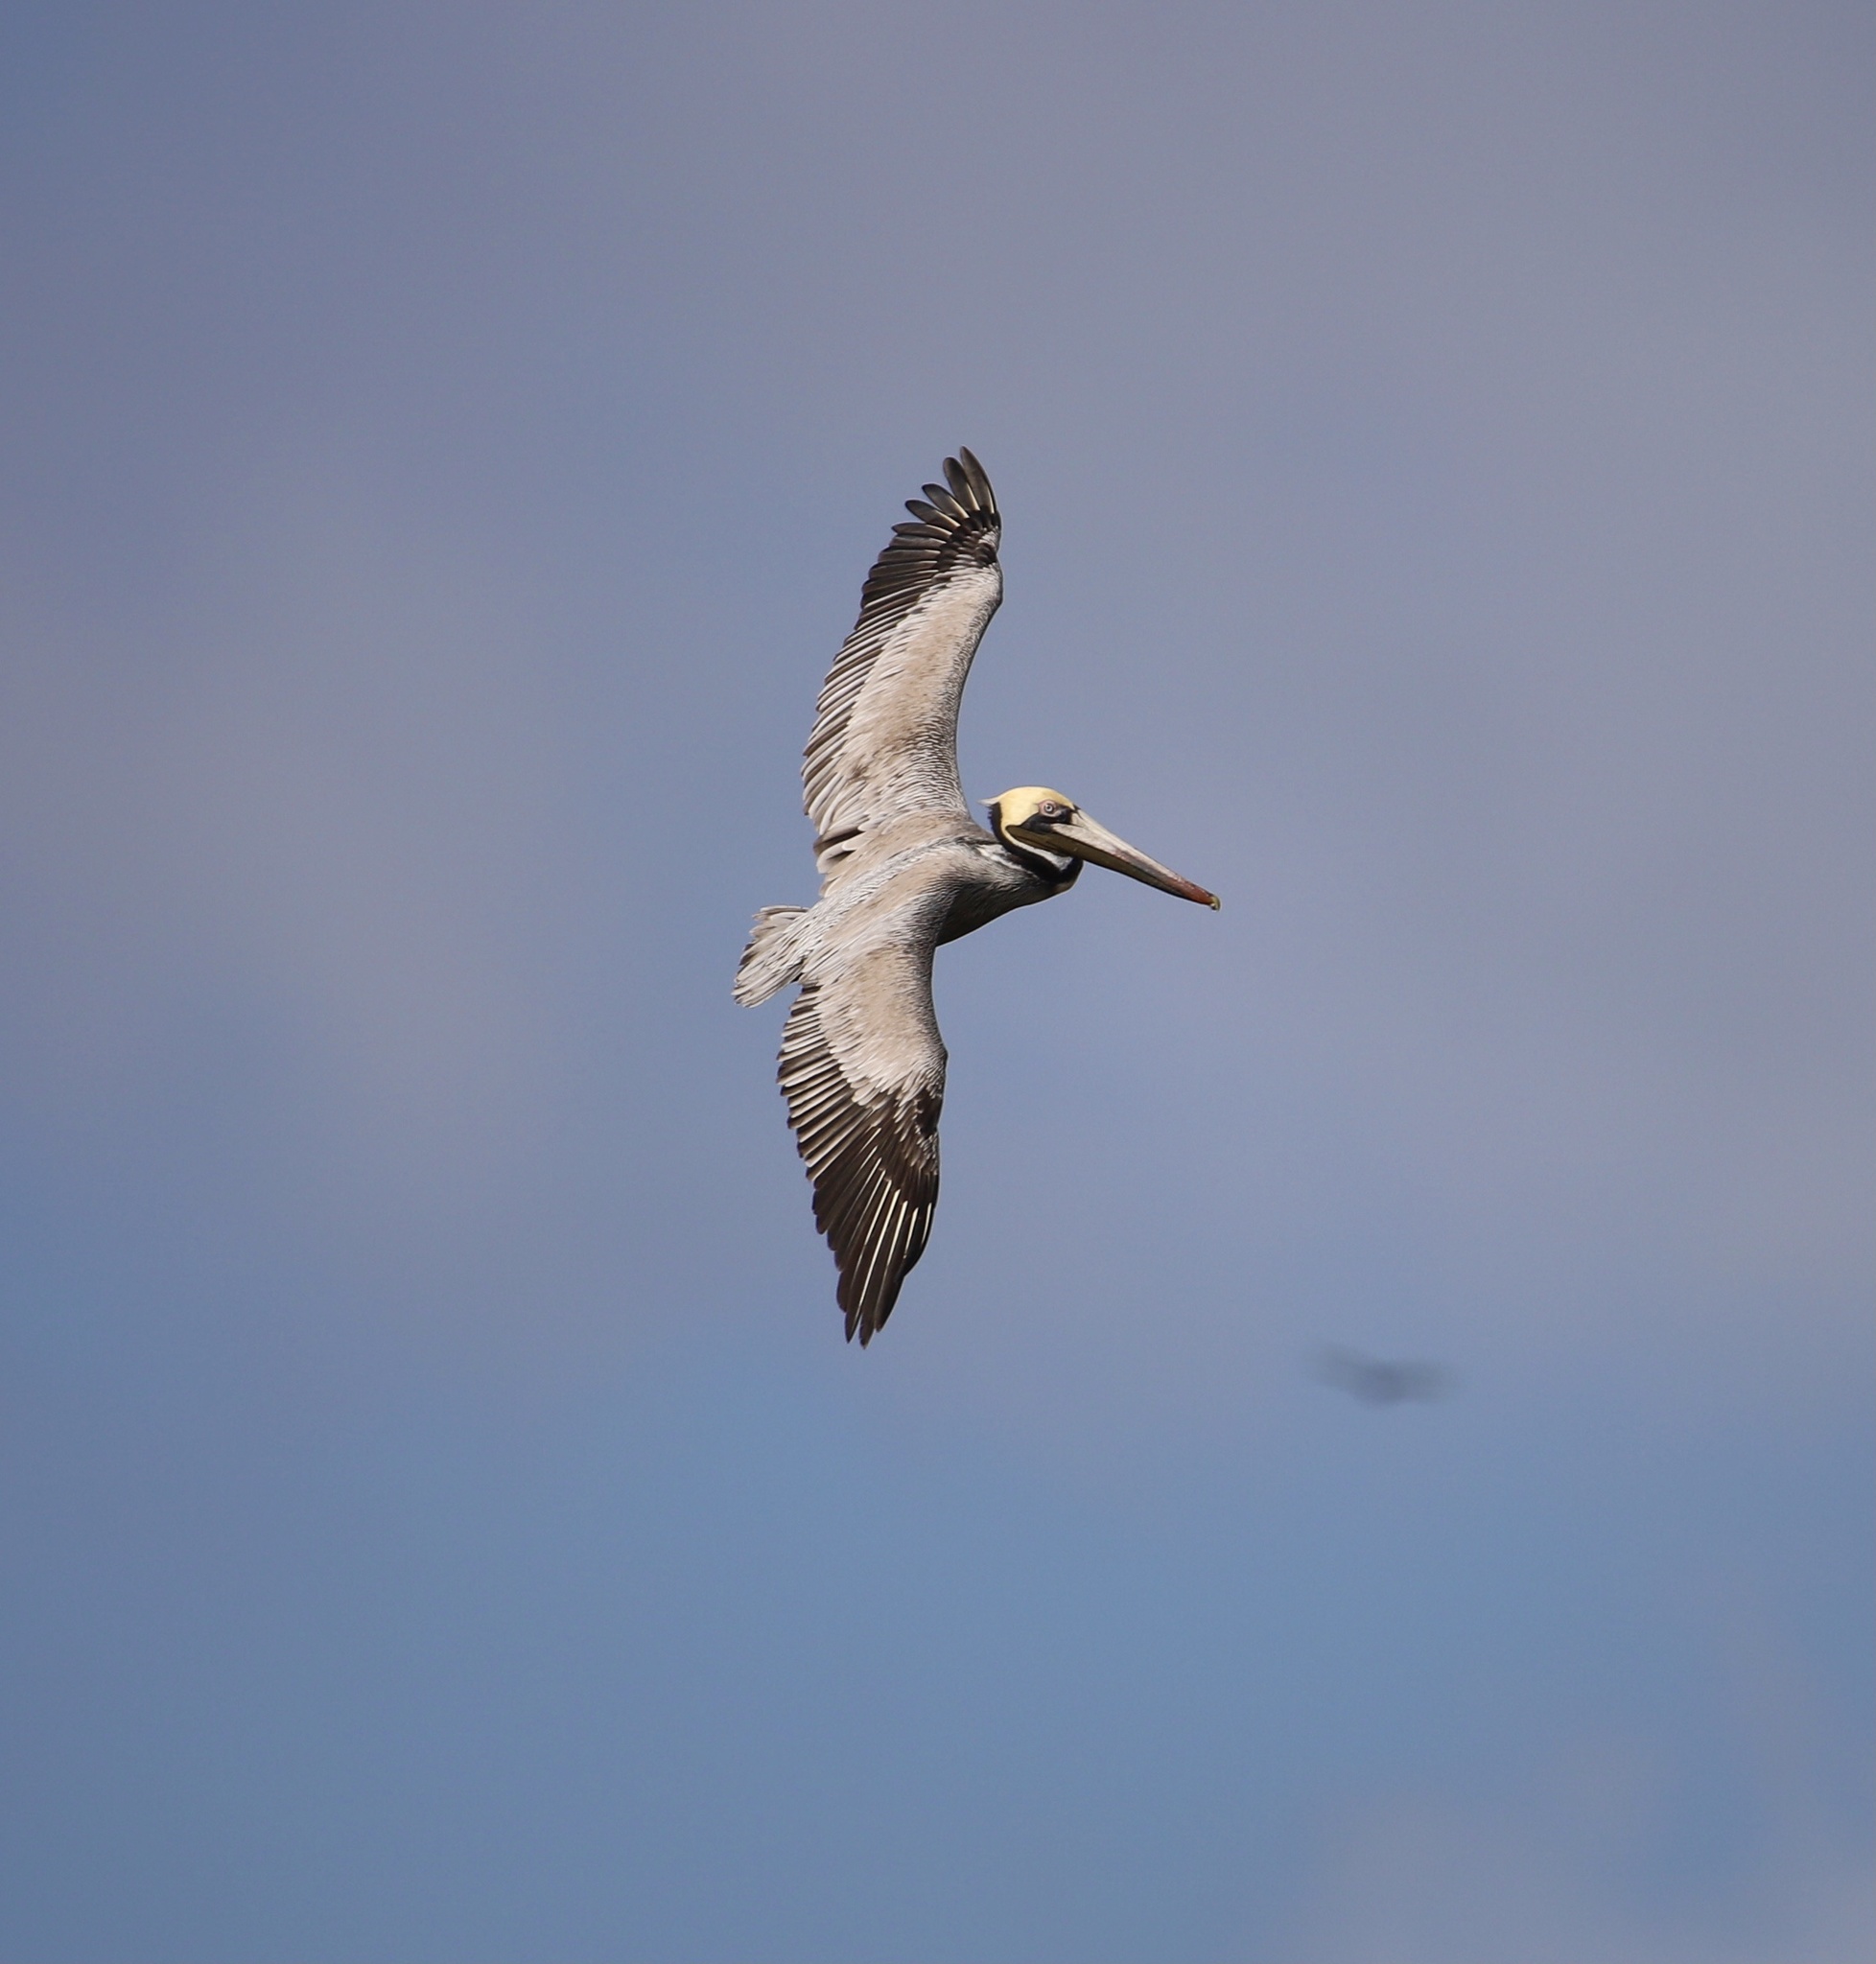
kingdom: Animalia
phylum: Chordata
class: Aves
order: Pelecaniformes
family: Pelecanidae
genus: Pelecanus
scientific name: Pelecanus occidentalis
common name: Brown pelican
